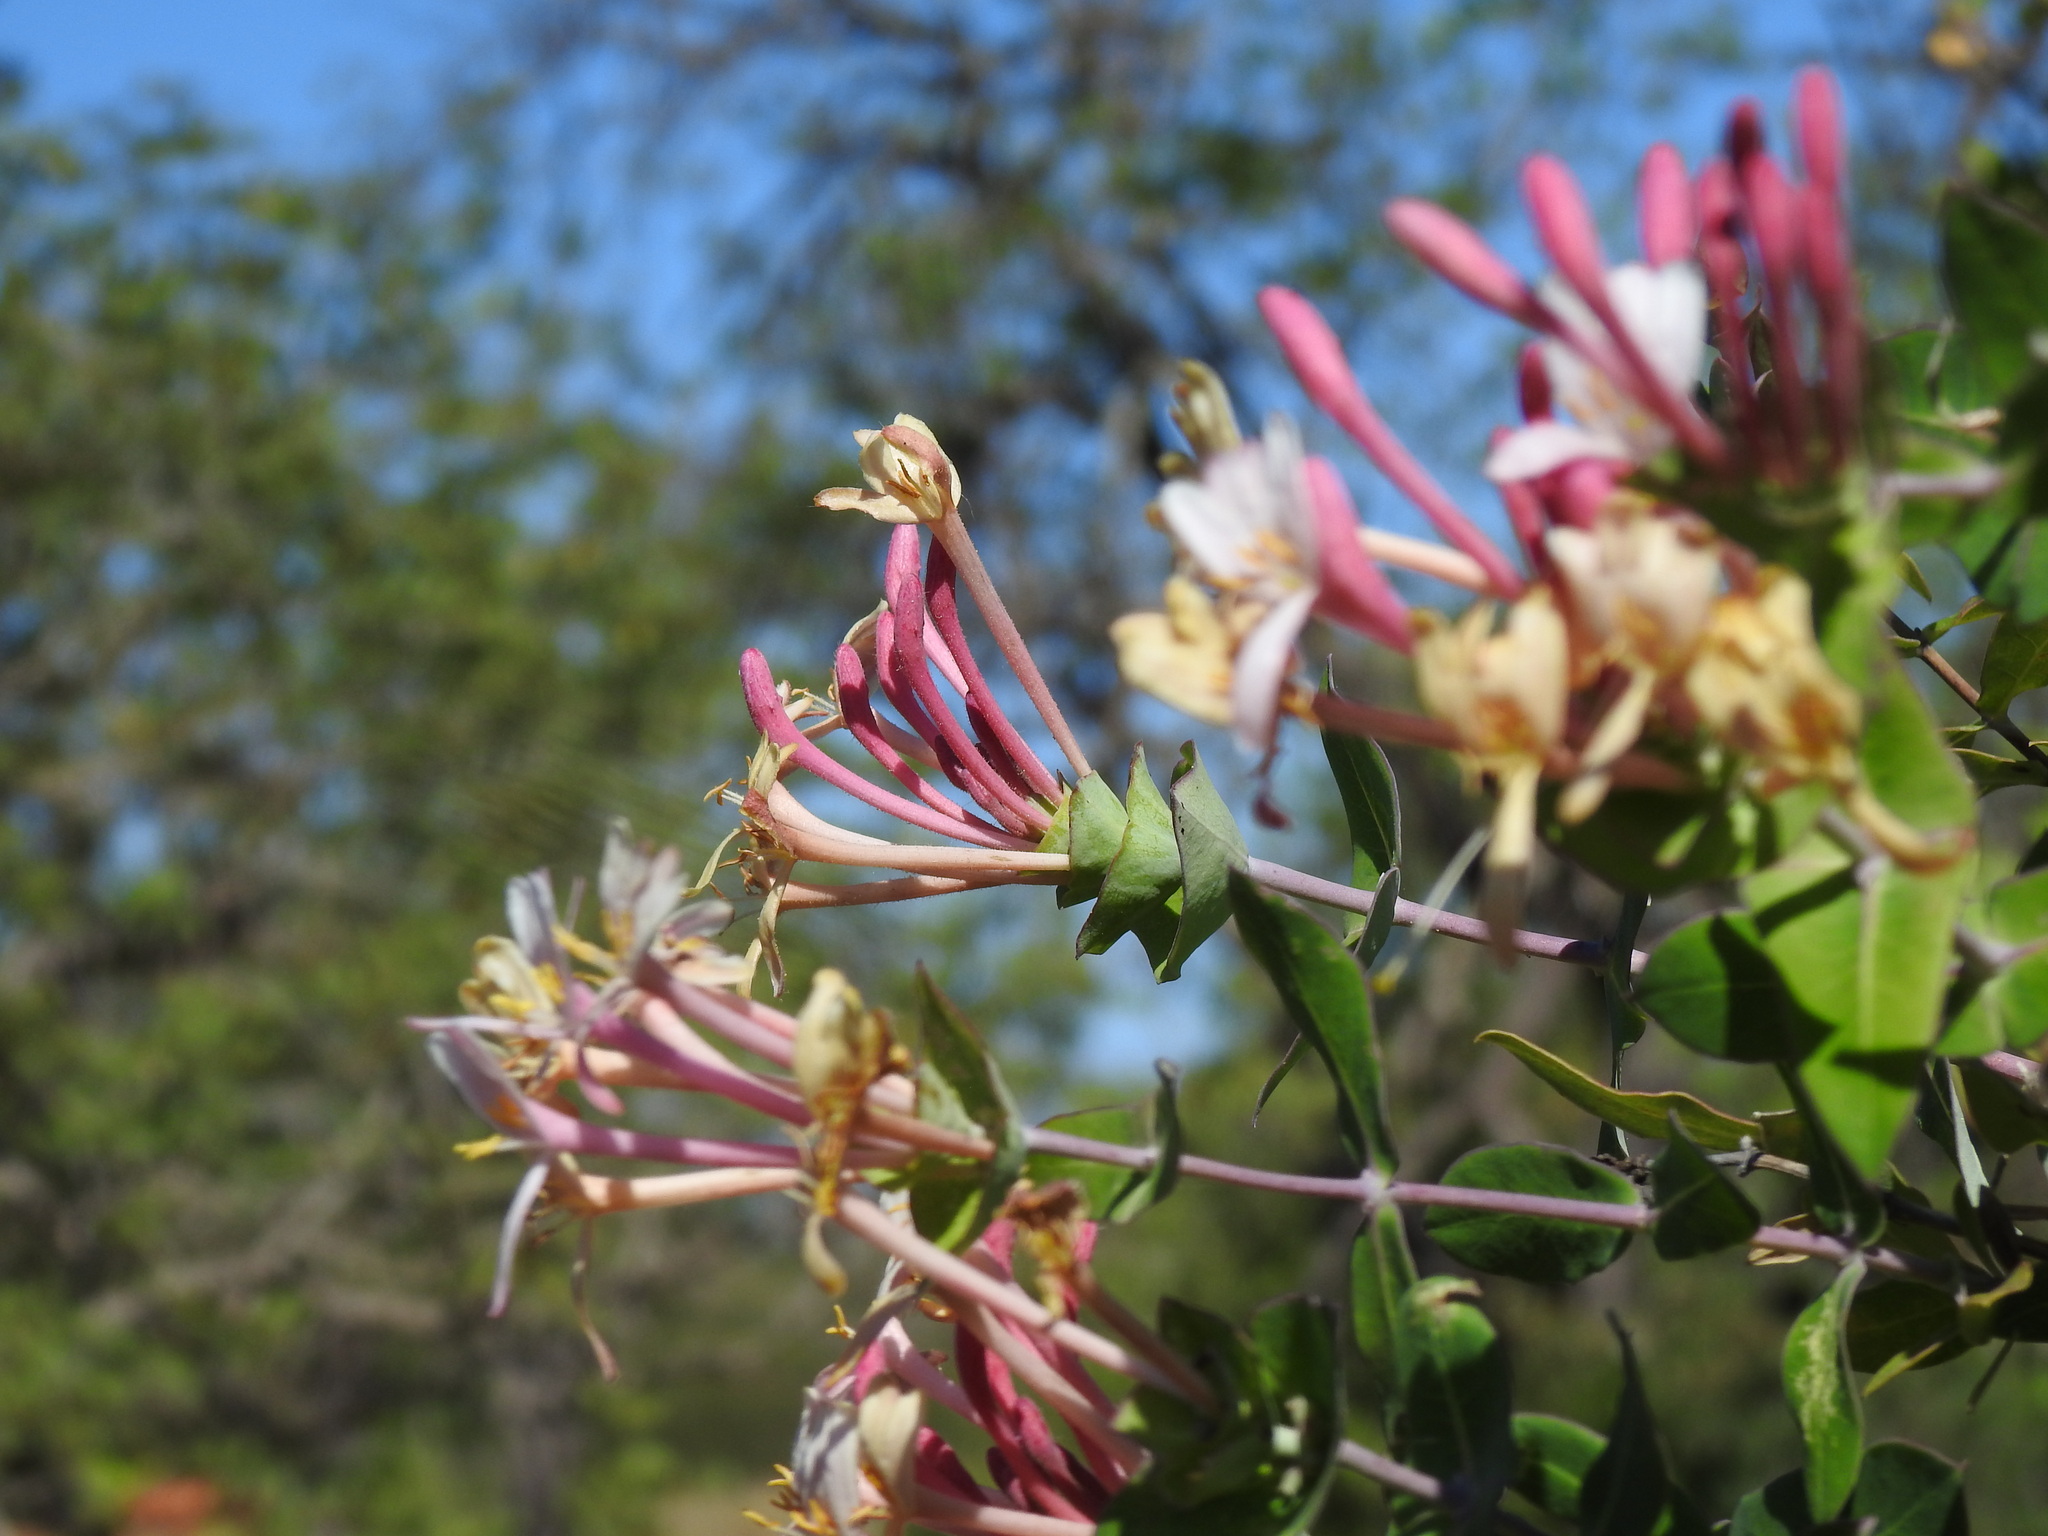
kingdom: Plantae
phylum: Tracheophyta
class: Magnoliopsida
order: Dipsacales
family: Caprifoliaceae
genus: Lonicera
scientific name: Lonicera implexa
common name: Minorca honeysuckle
